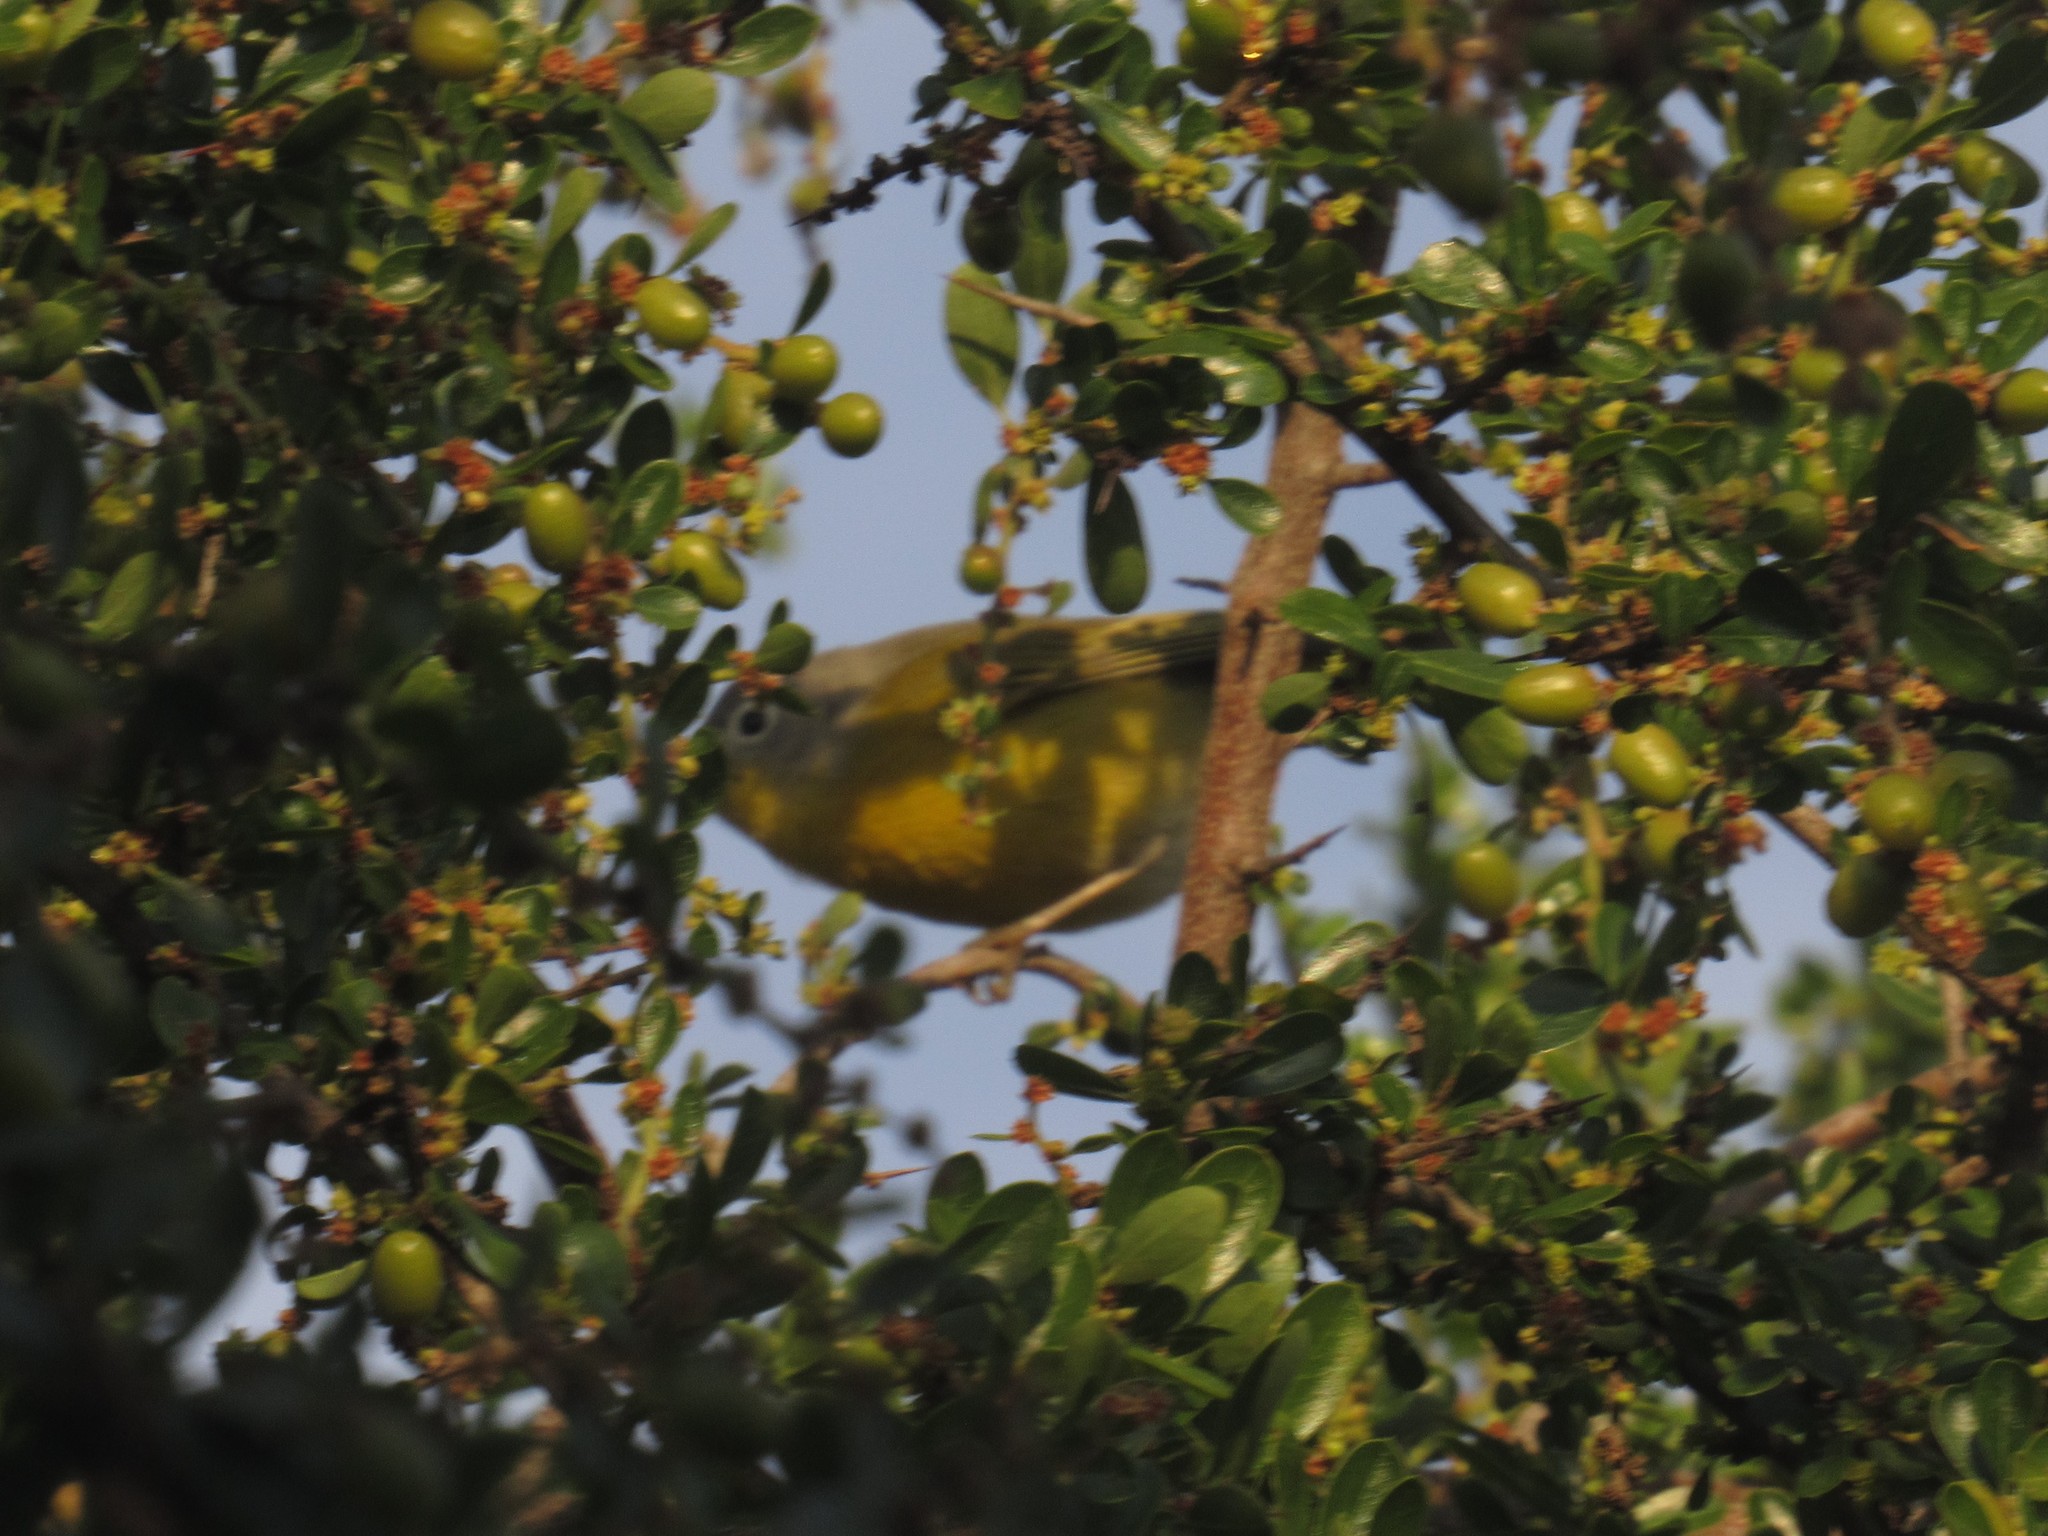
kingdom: Animalia
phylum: Chordata
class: Aves
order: Passeriformes
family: Parulidae
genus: Leiothlypis
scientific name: Leiothlypis ruficapilla
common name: Nashville warbler
